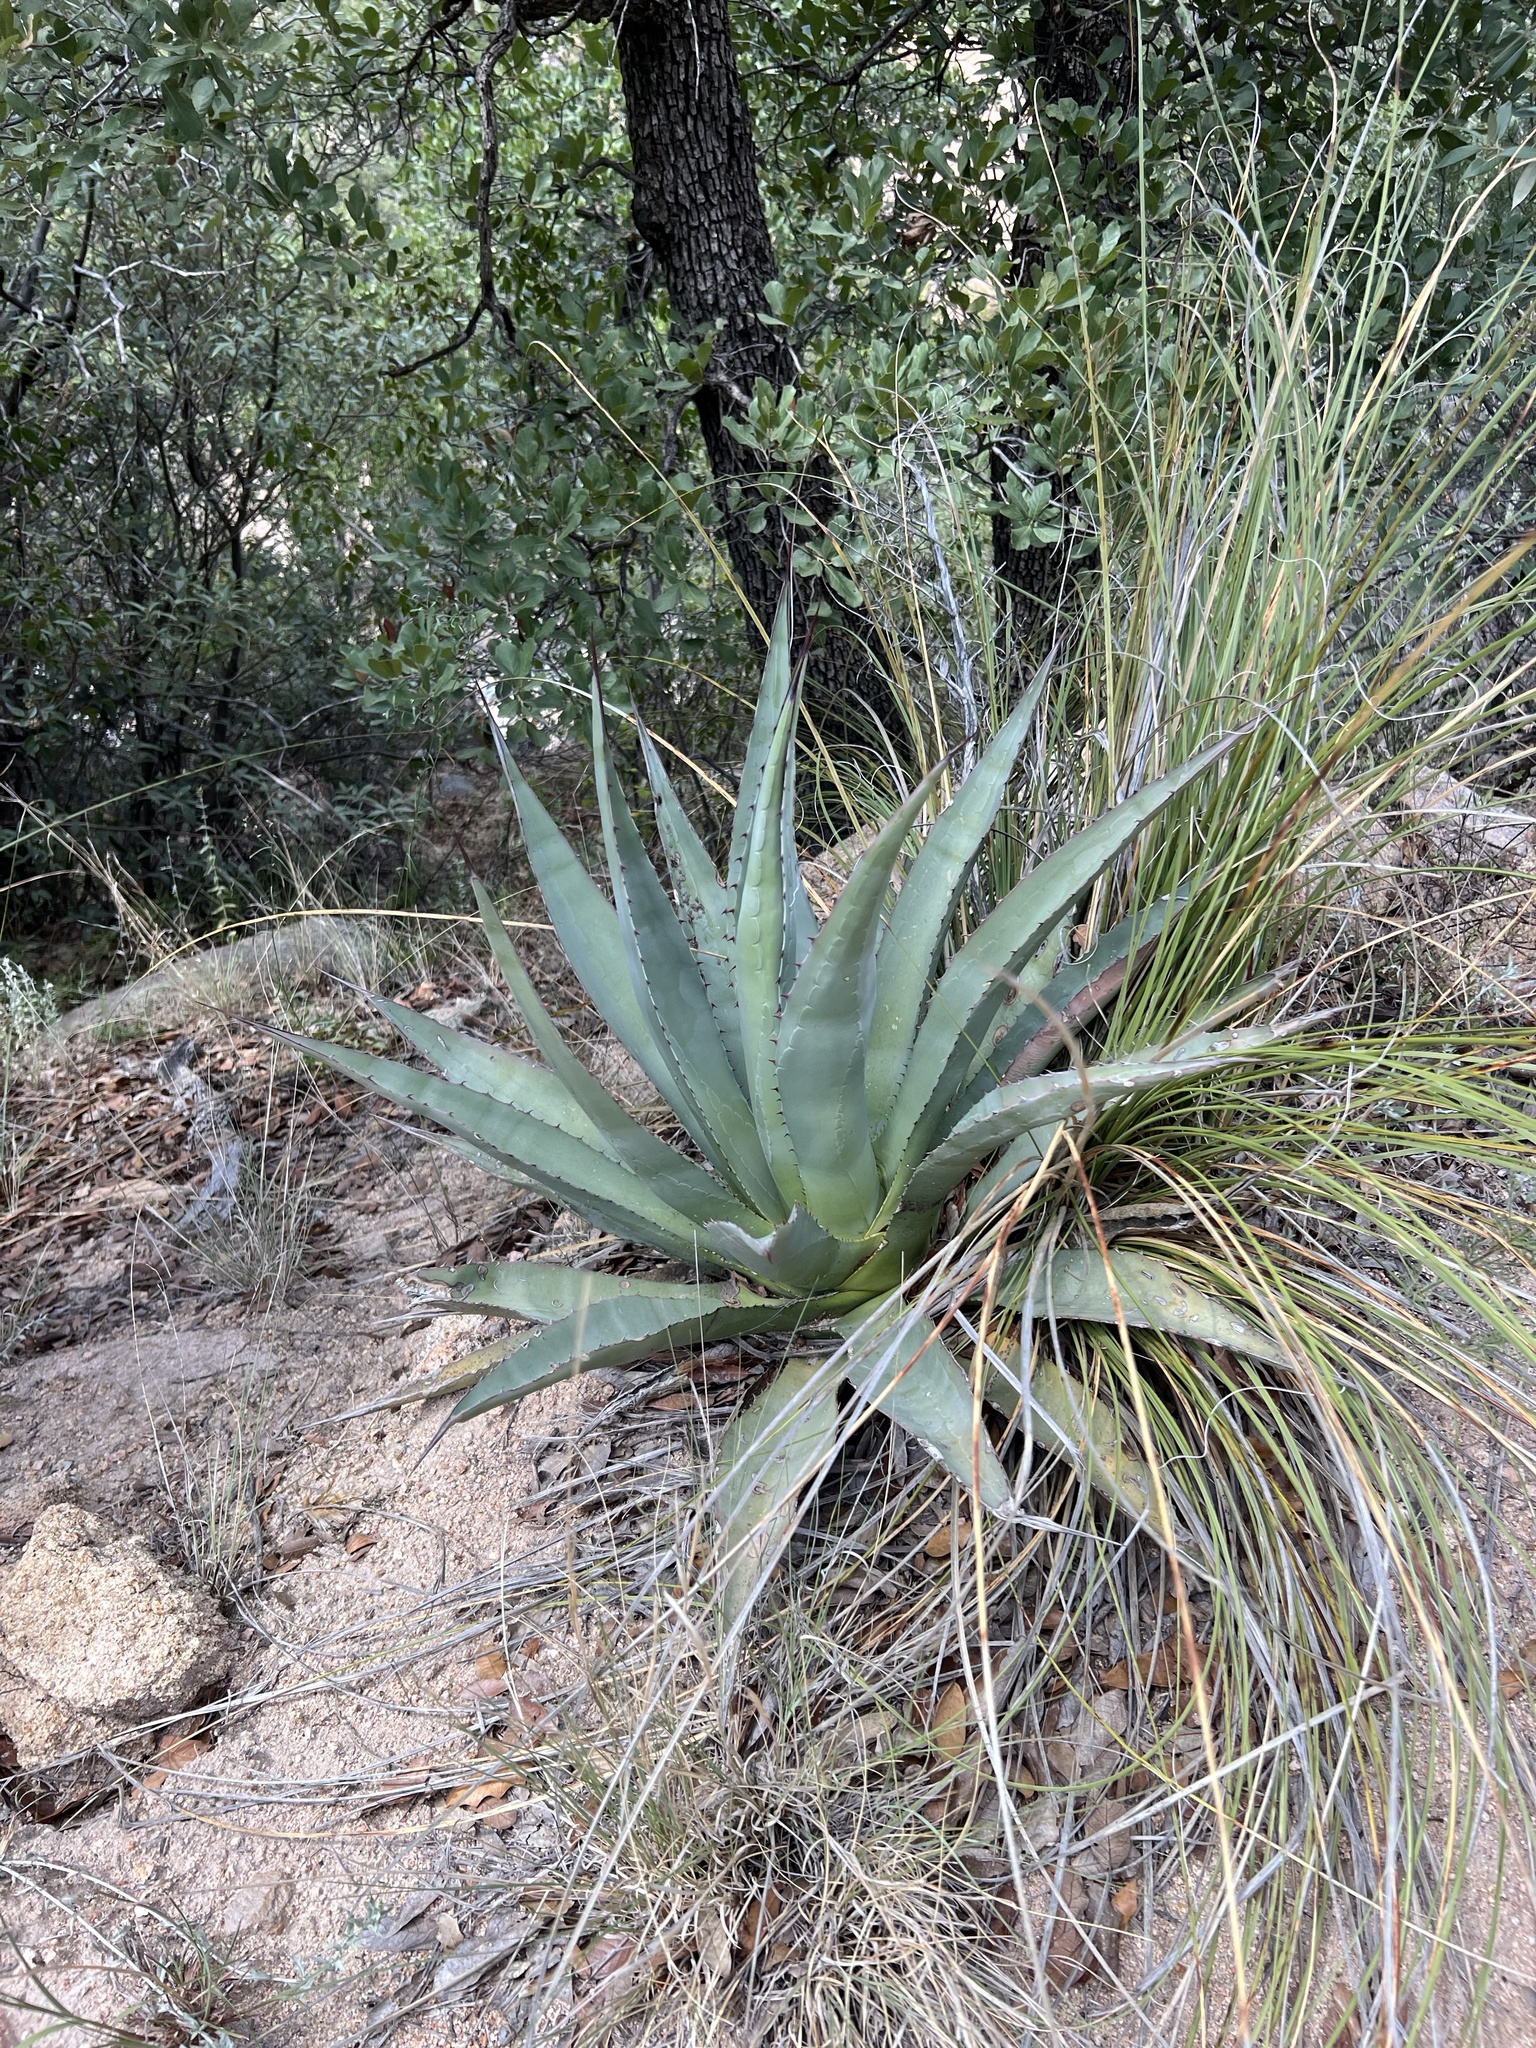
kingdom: Plantae
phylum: Tracheophyta
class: Liliopsida
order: Asparagales
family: Asparagaceae
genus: Agave
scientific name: Agave palmeri
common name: Palmer agave
